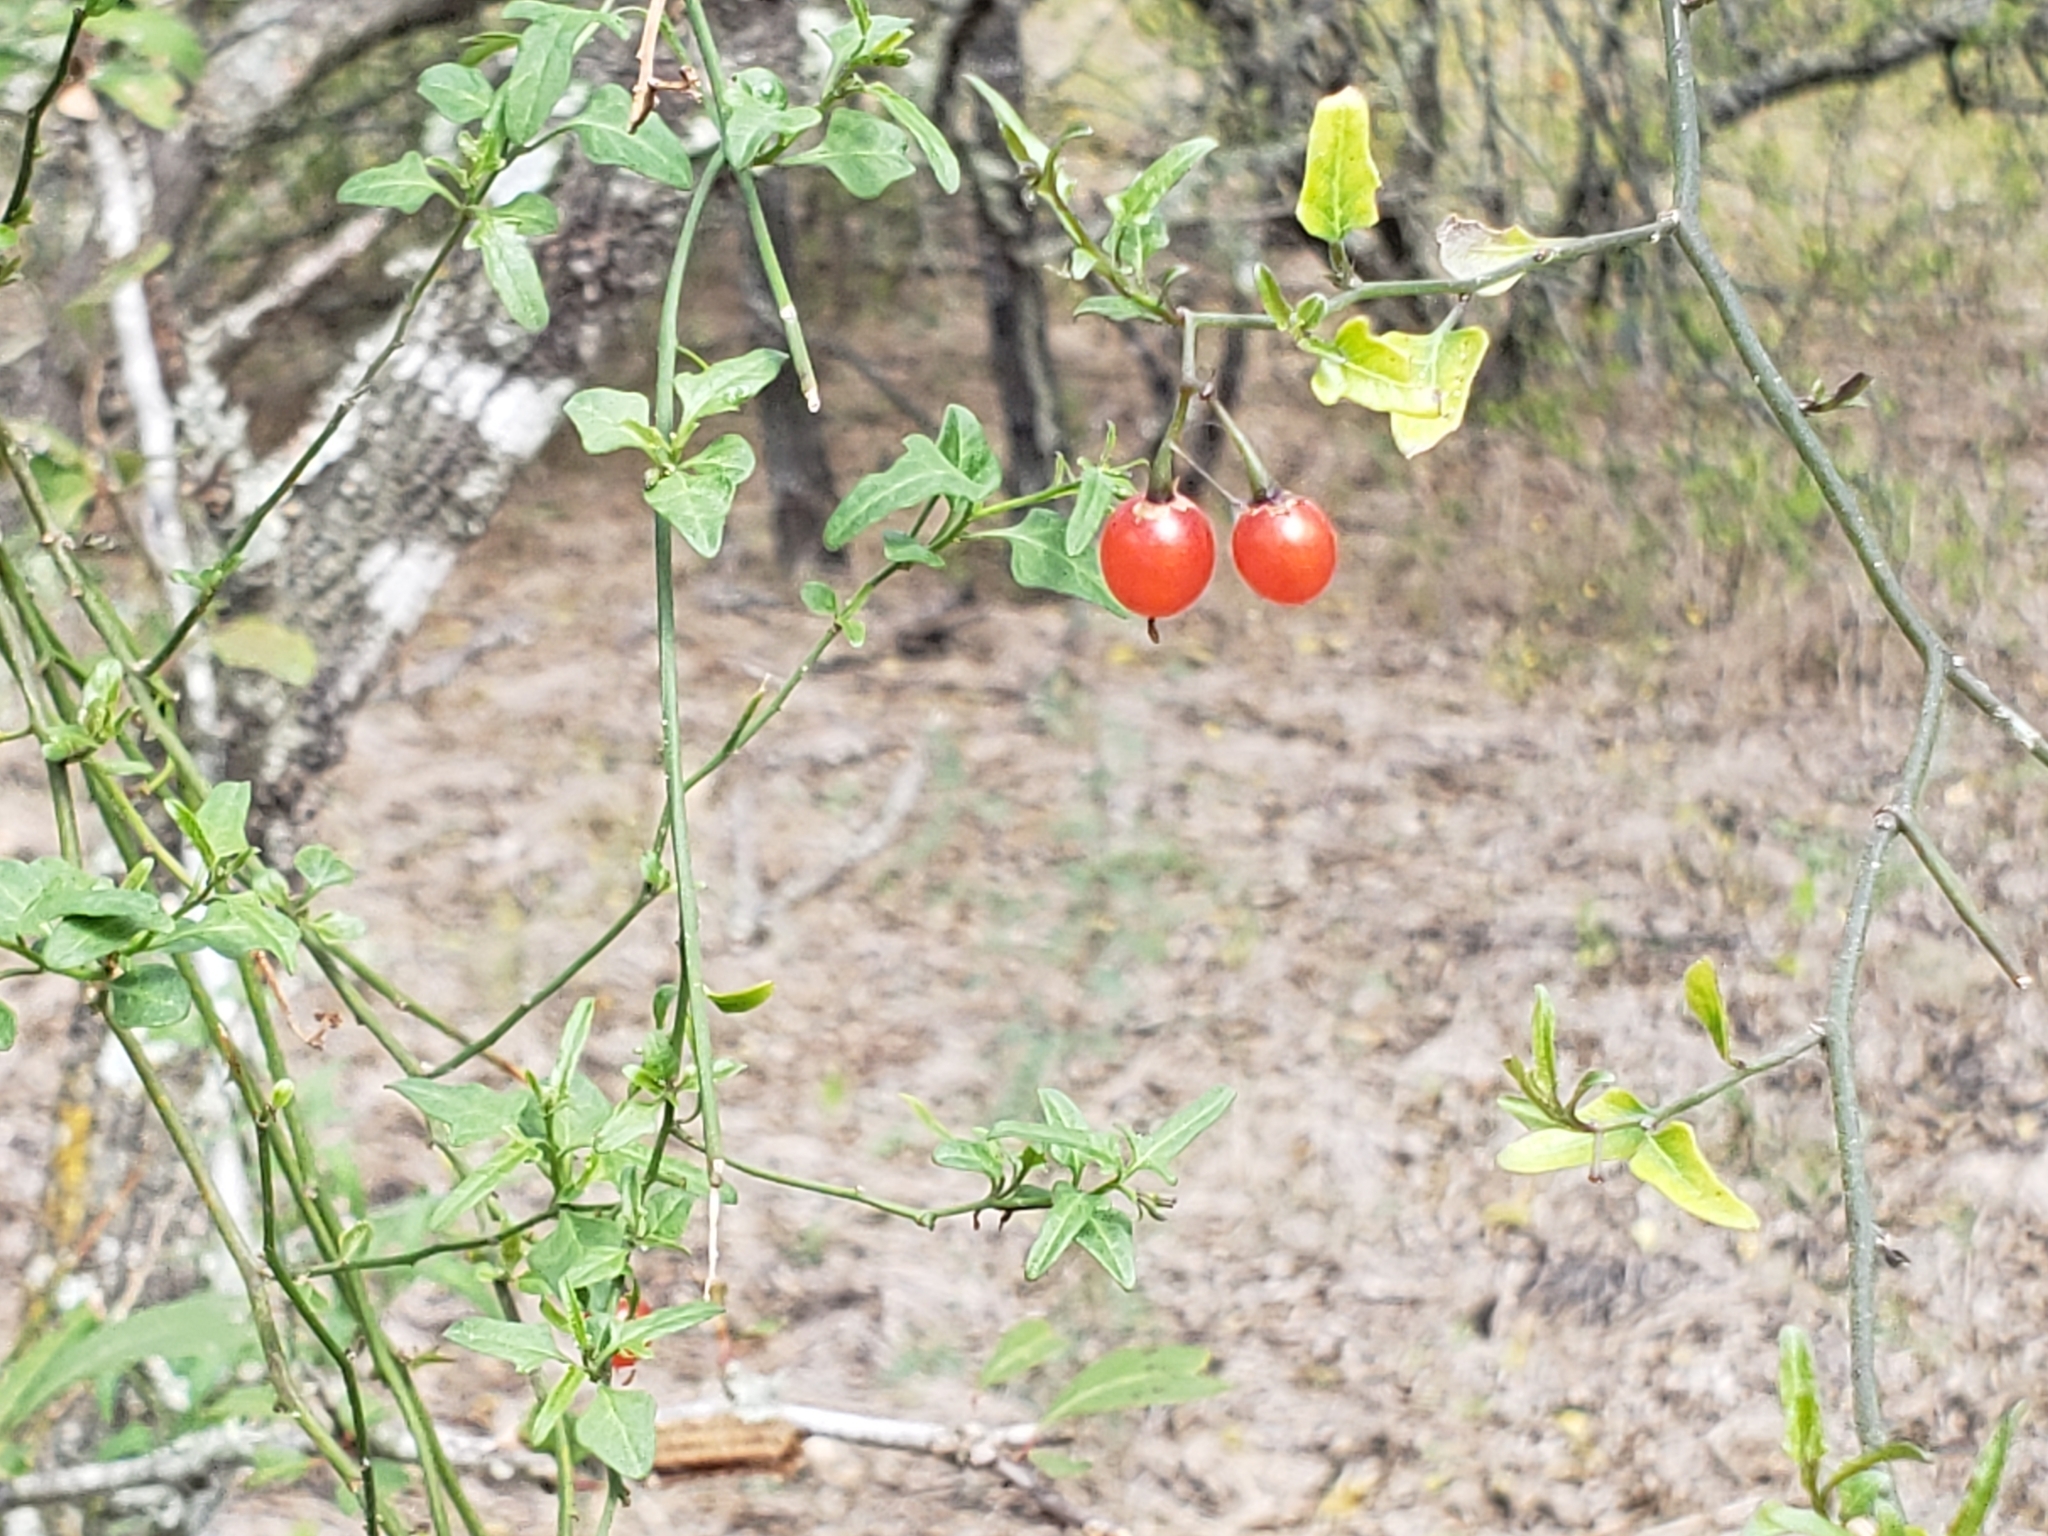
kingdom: Plantae
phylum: Tracheophyta
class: Magnoliopsida
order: Solanales
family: Solanaceae
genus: Solanum
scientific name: Solanum triquetrum
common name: Texas nightshade
